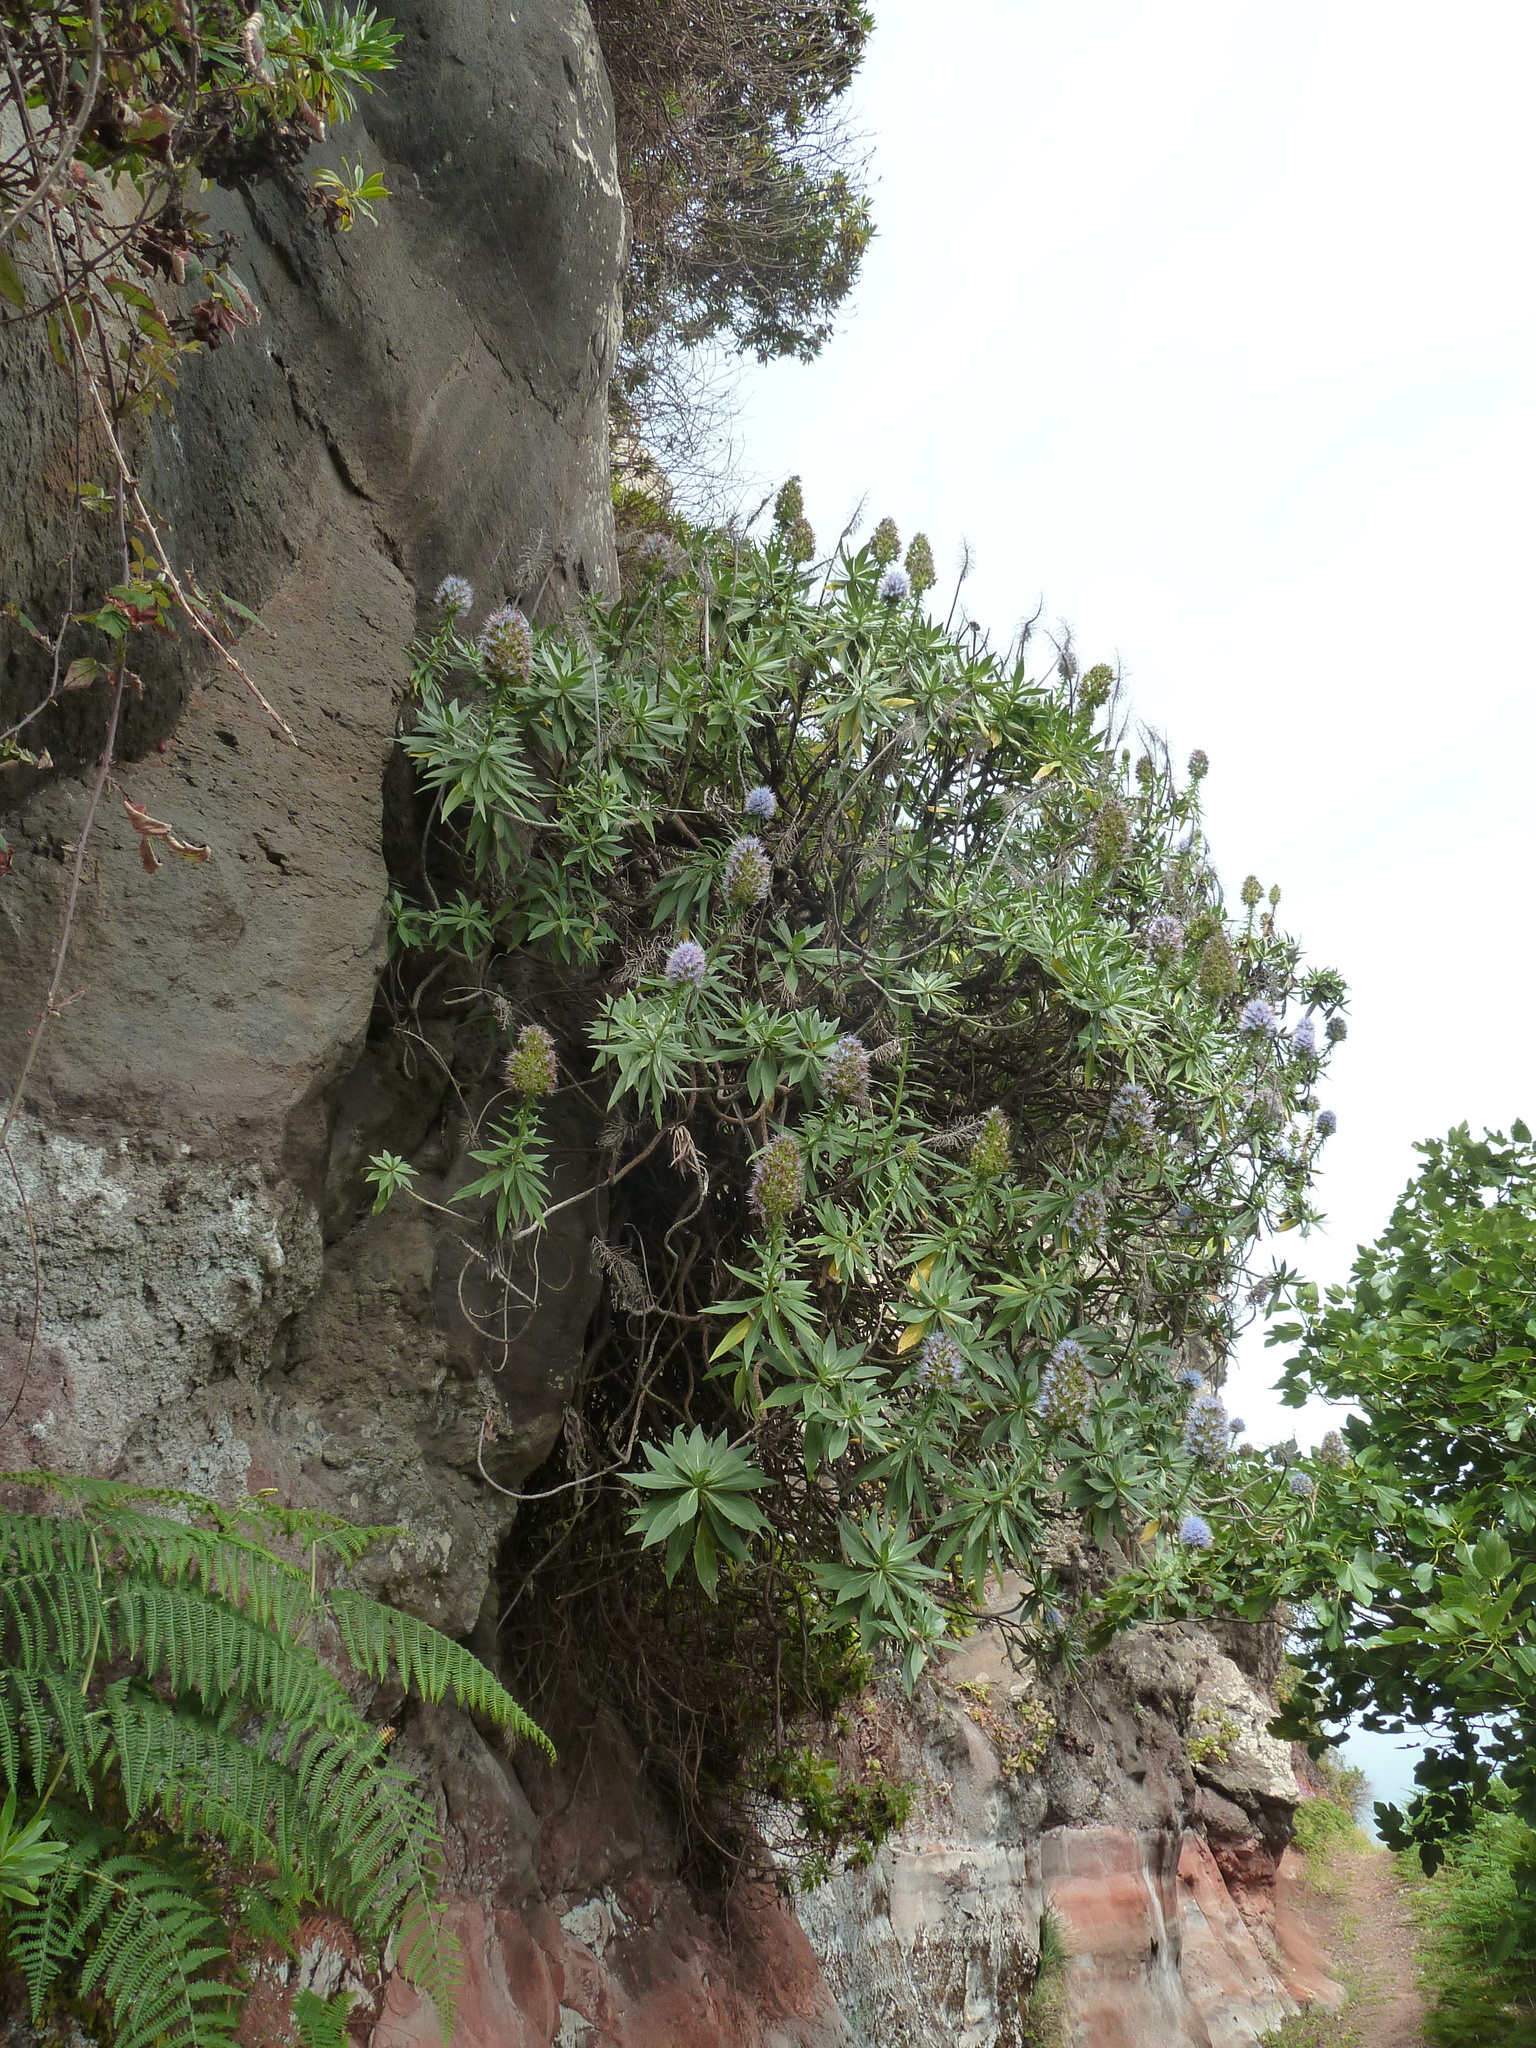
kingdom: Plantae
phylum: Tracheophyta
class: Magnoliopsida
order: Boraginales
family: Boraginaceae
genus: Echium
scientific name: Echium nervosum
